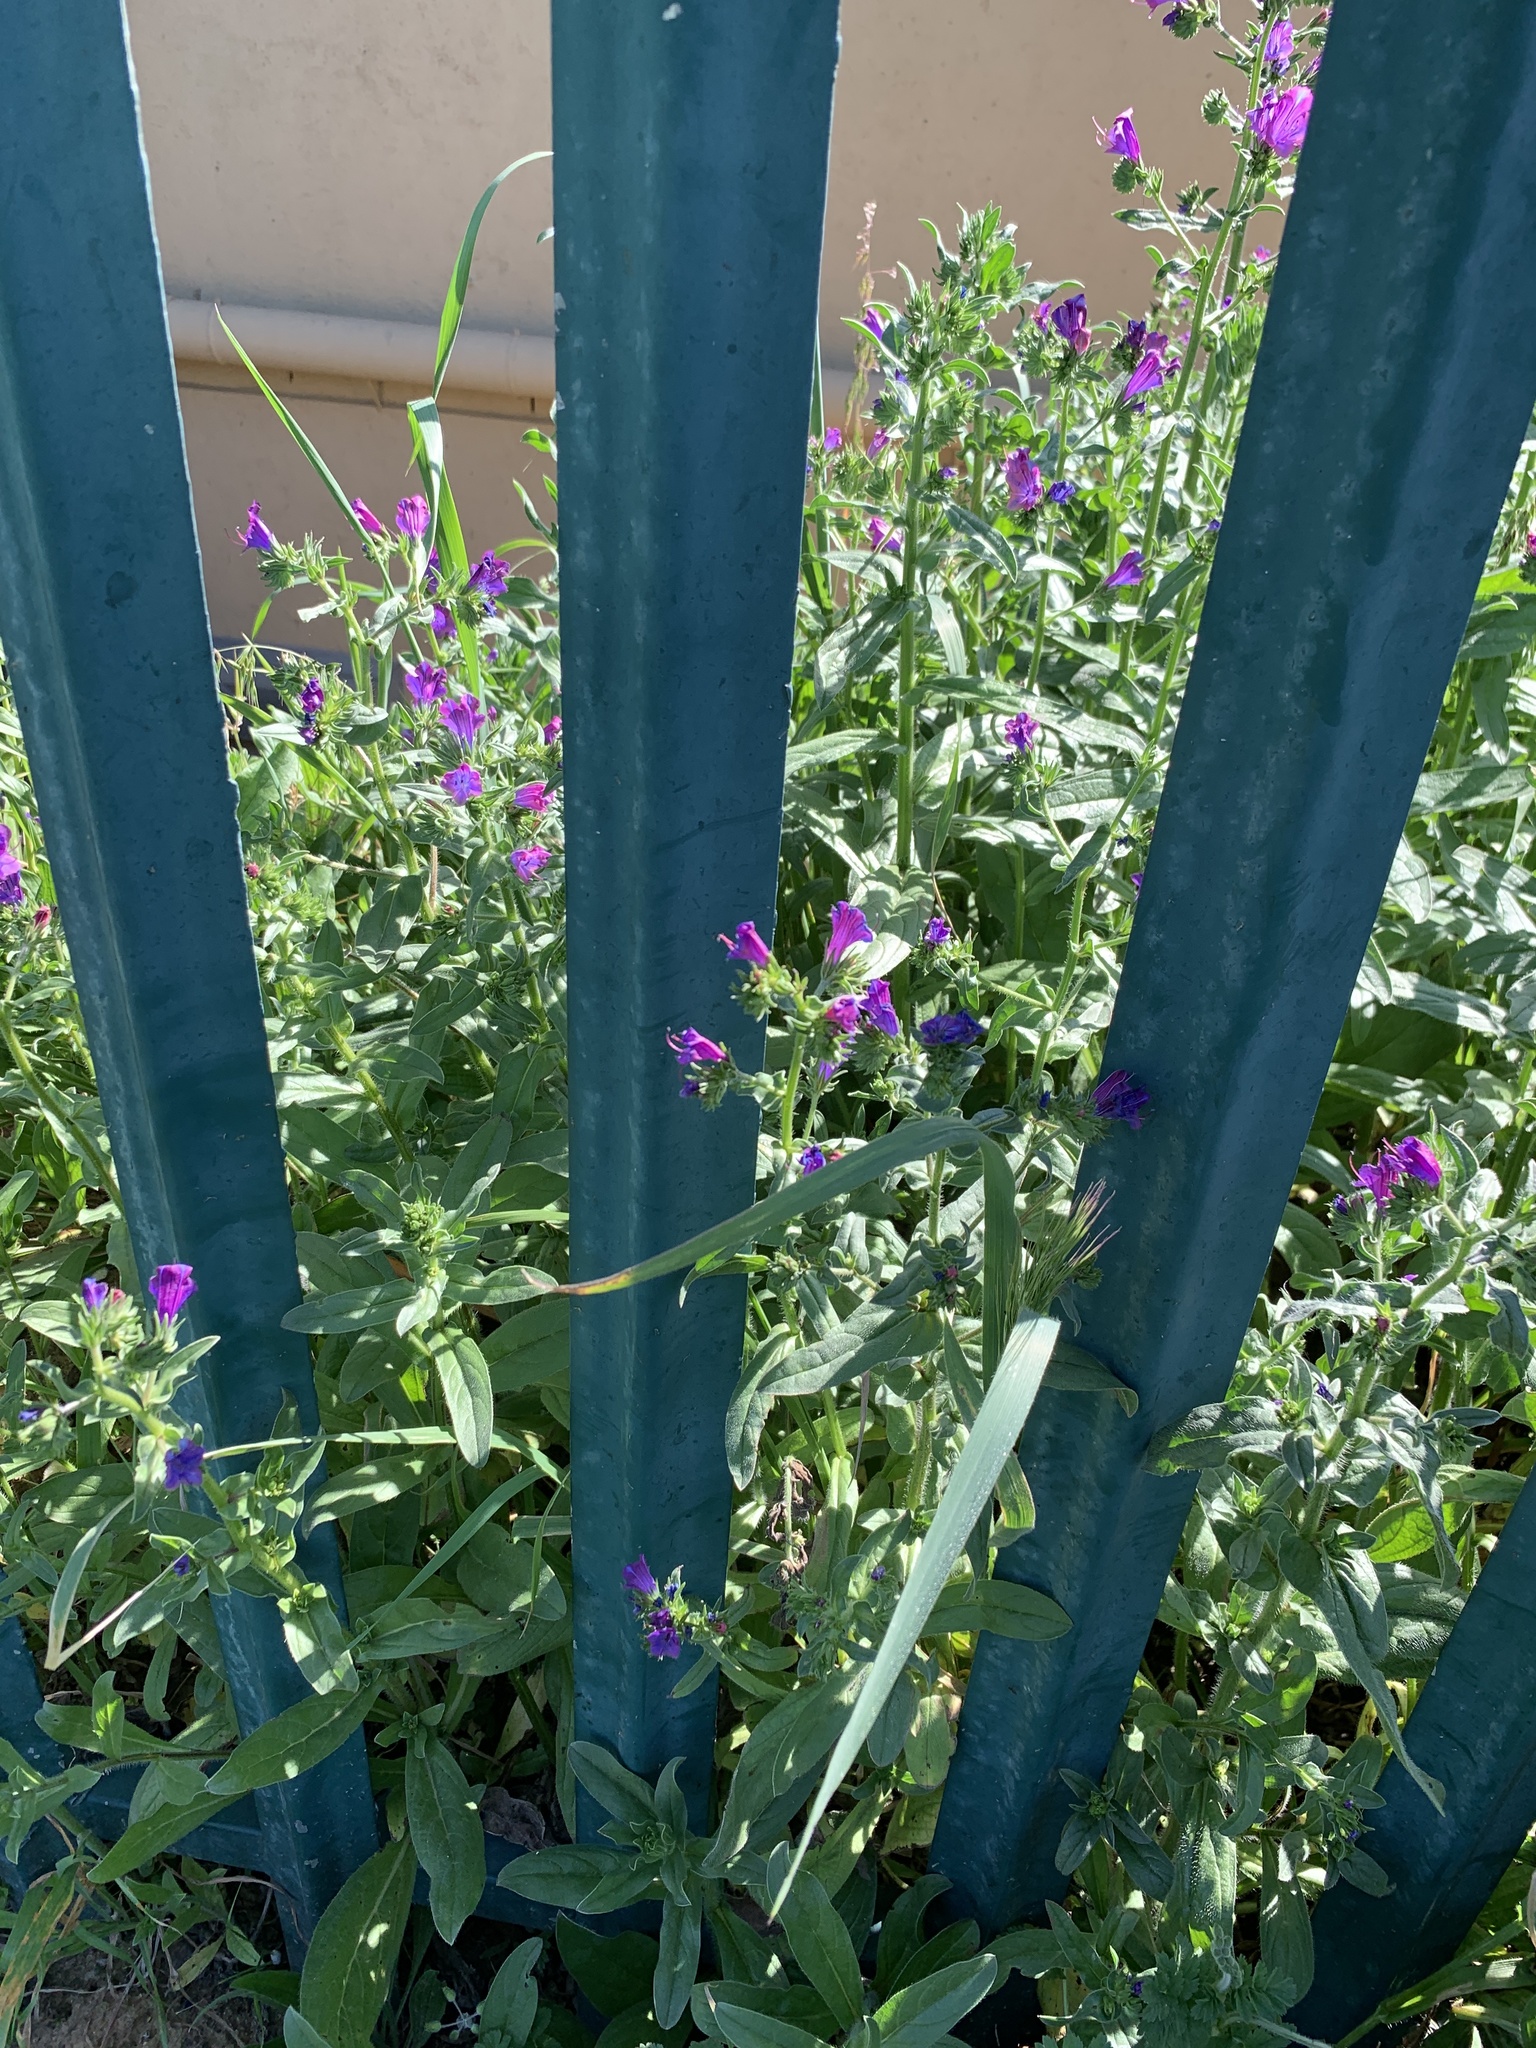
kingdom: Plantae
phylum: Tracheophyta
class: Magnoliopsida
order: Boraginales
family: Boraginaceae
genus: Echium
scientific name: Echium plantagineum
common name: Purple viper's-bugloss
